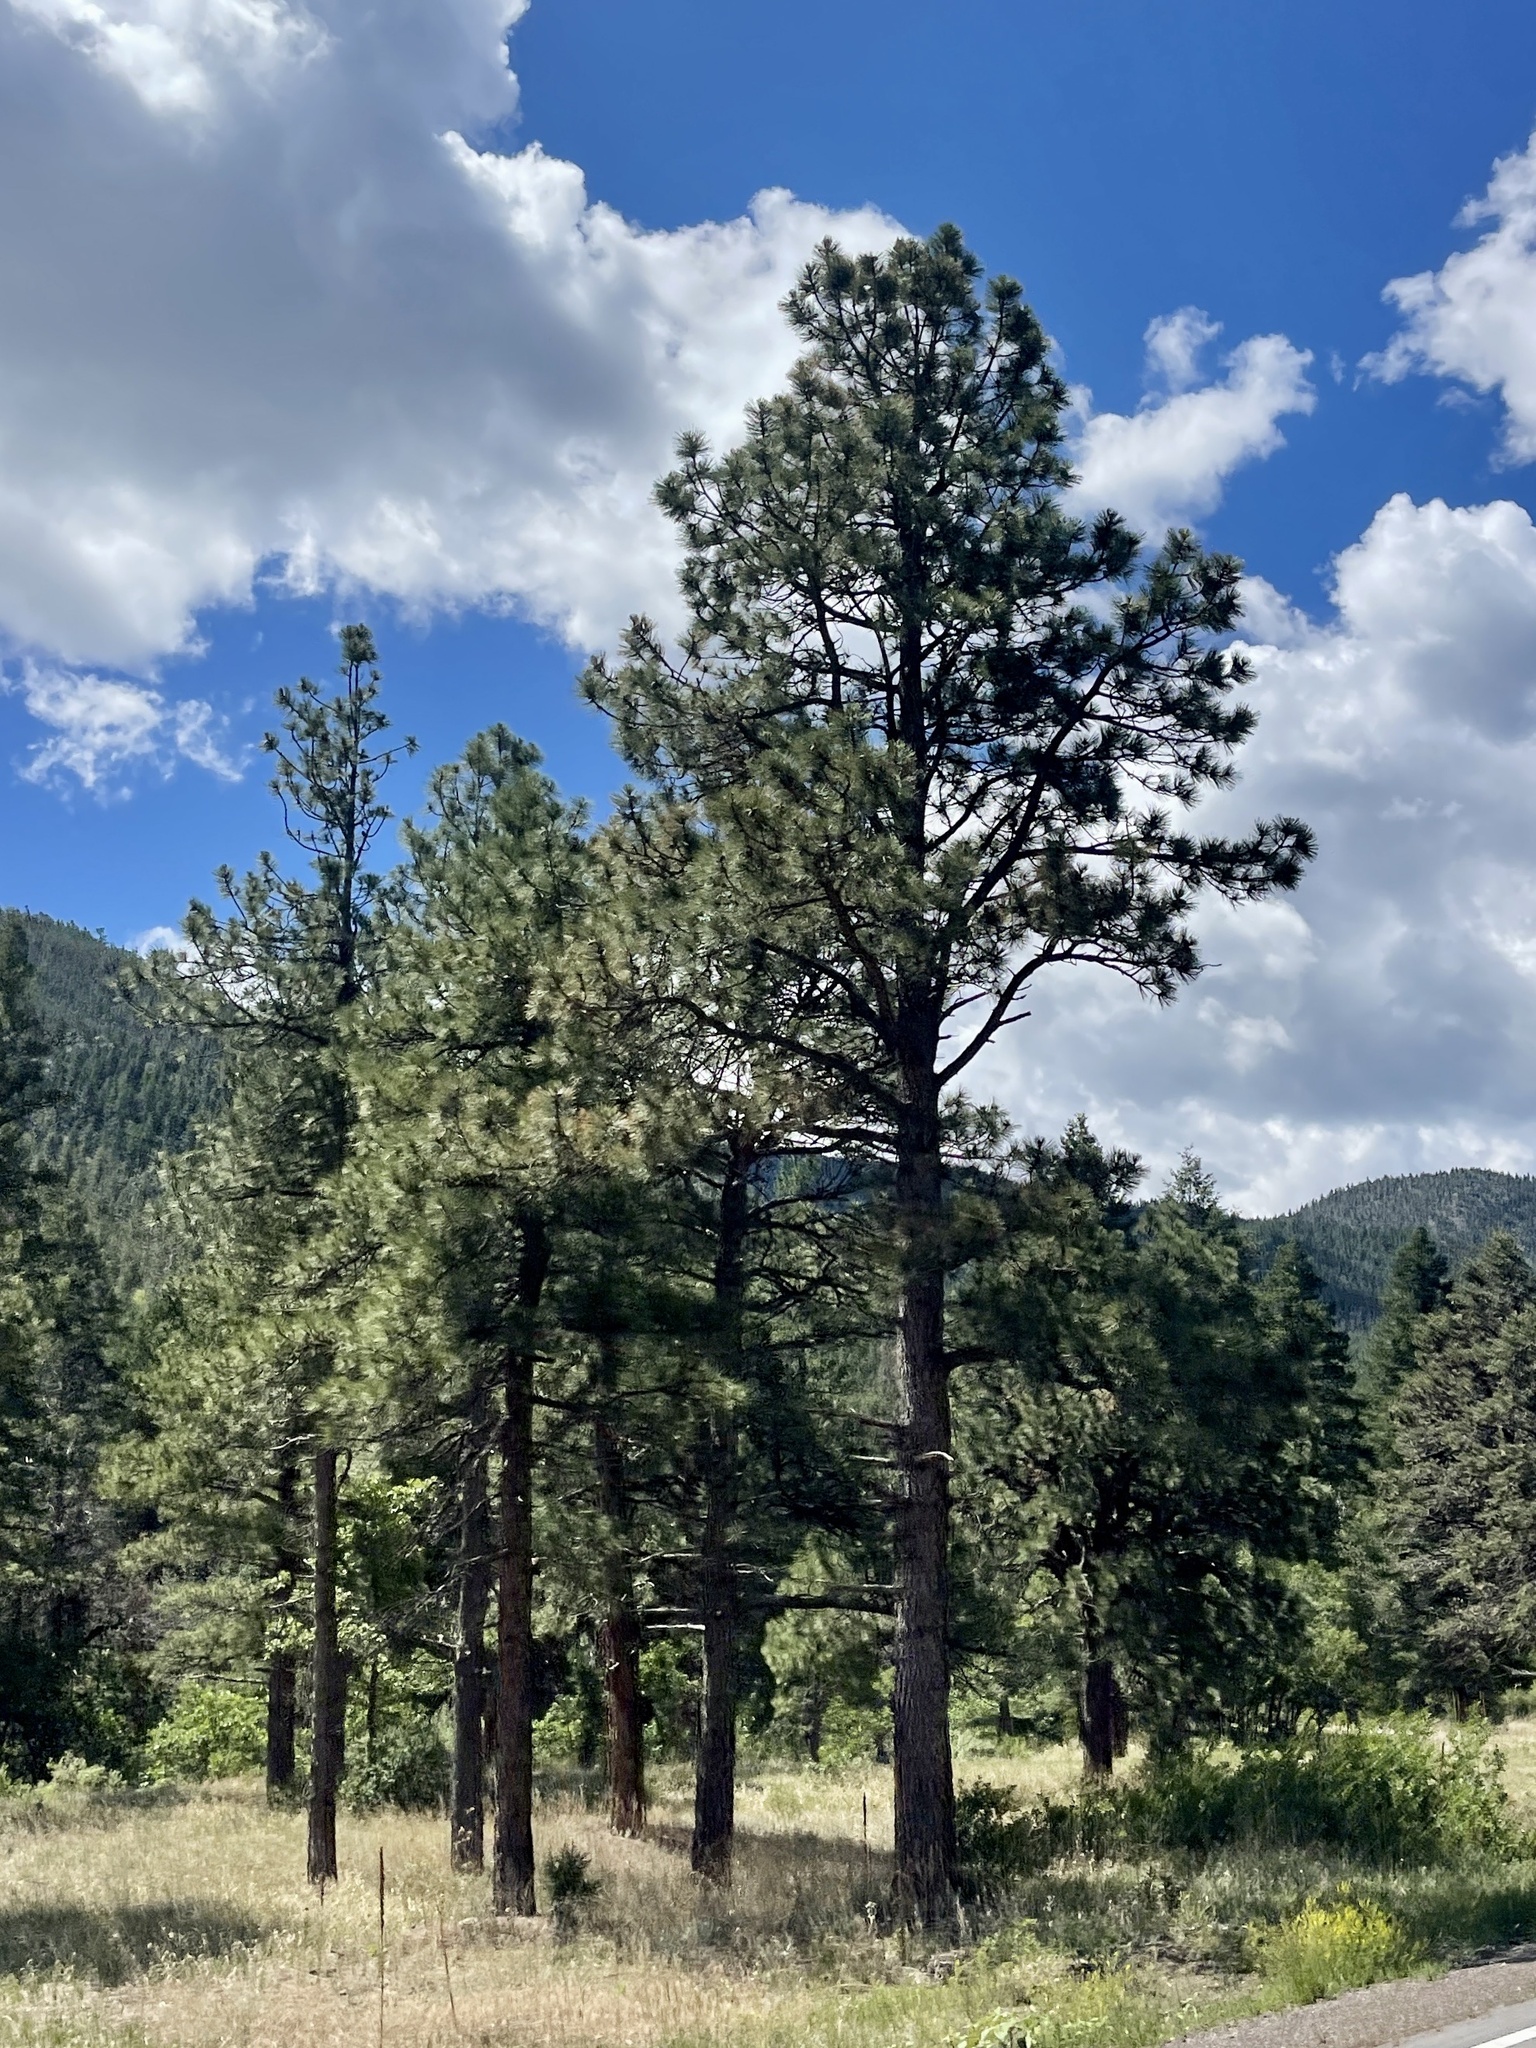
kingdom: Plantae
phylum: Tracheophyta
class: Pinopsida
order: Pinales
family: Pinaceae
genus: Pinus
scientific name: Pinus ponderosa
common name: Western yellow-pine
